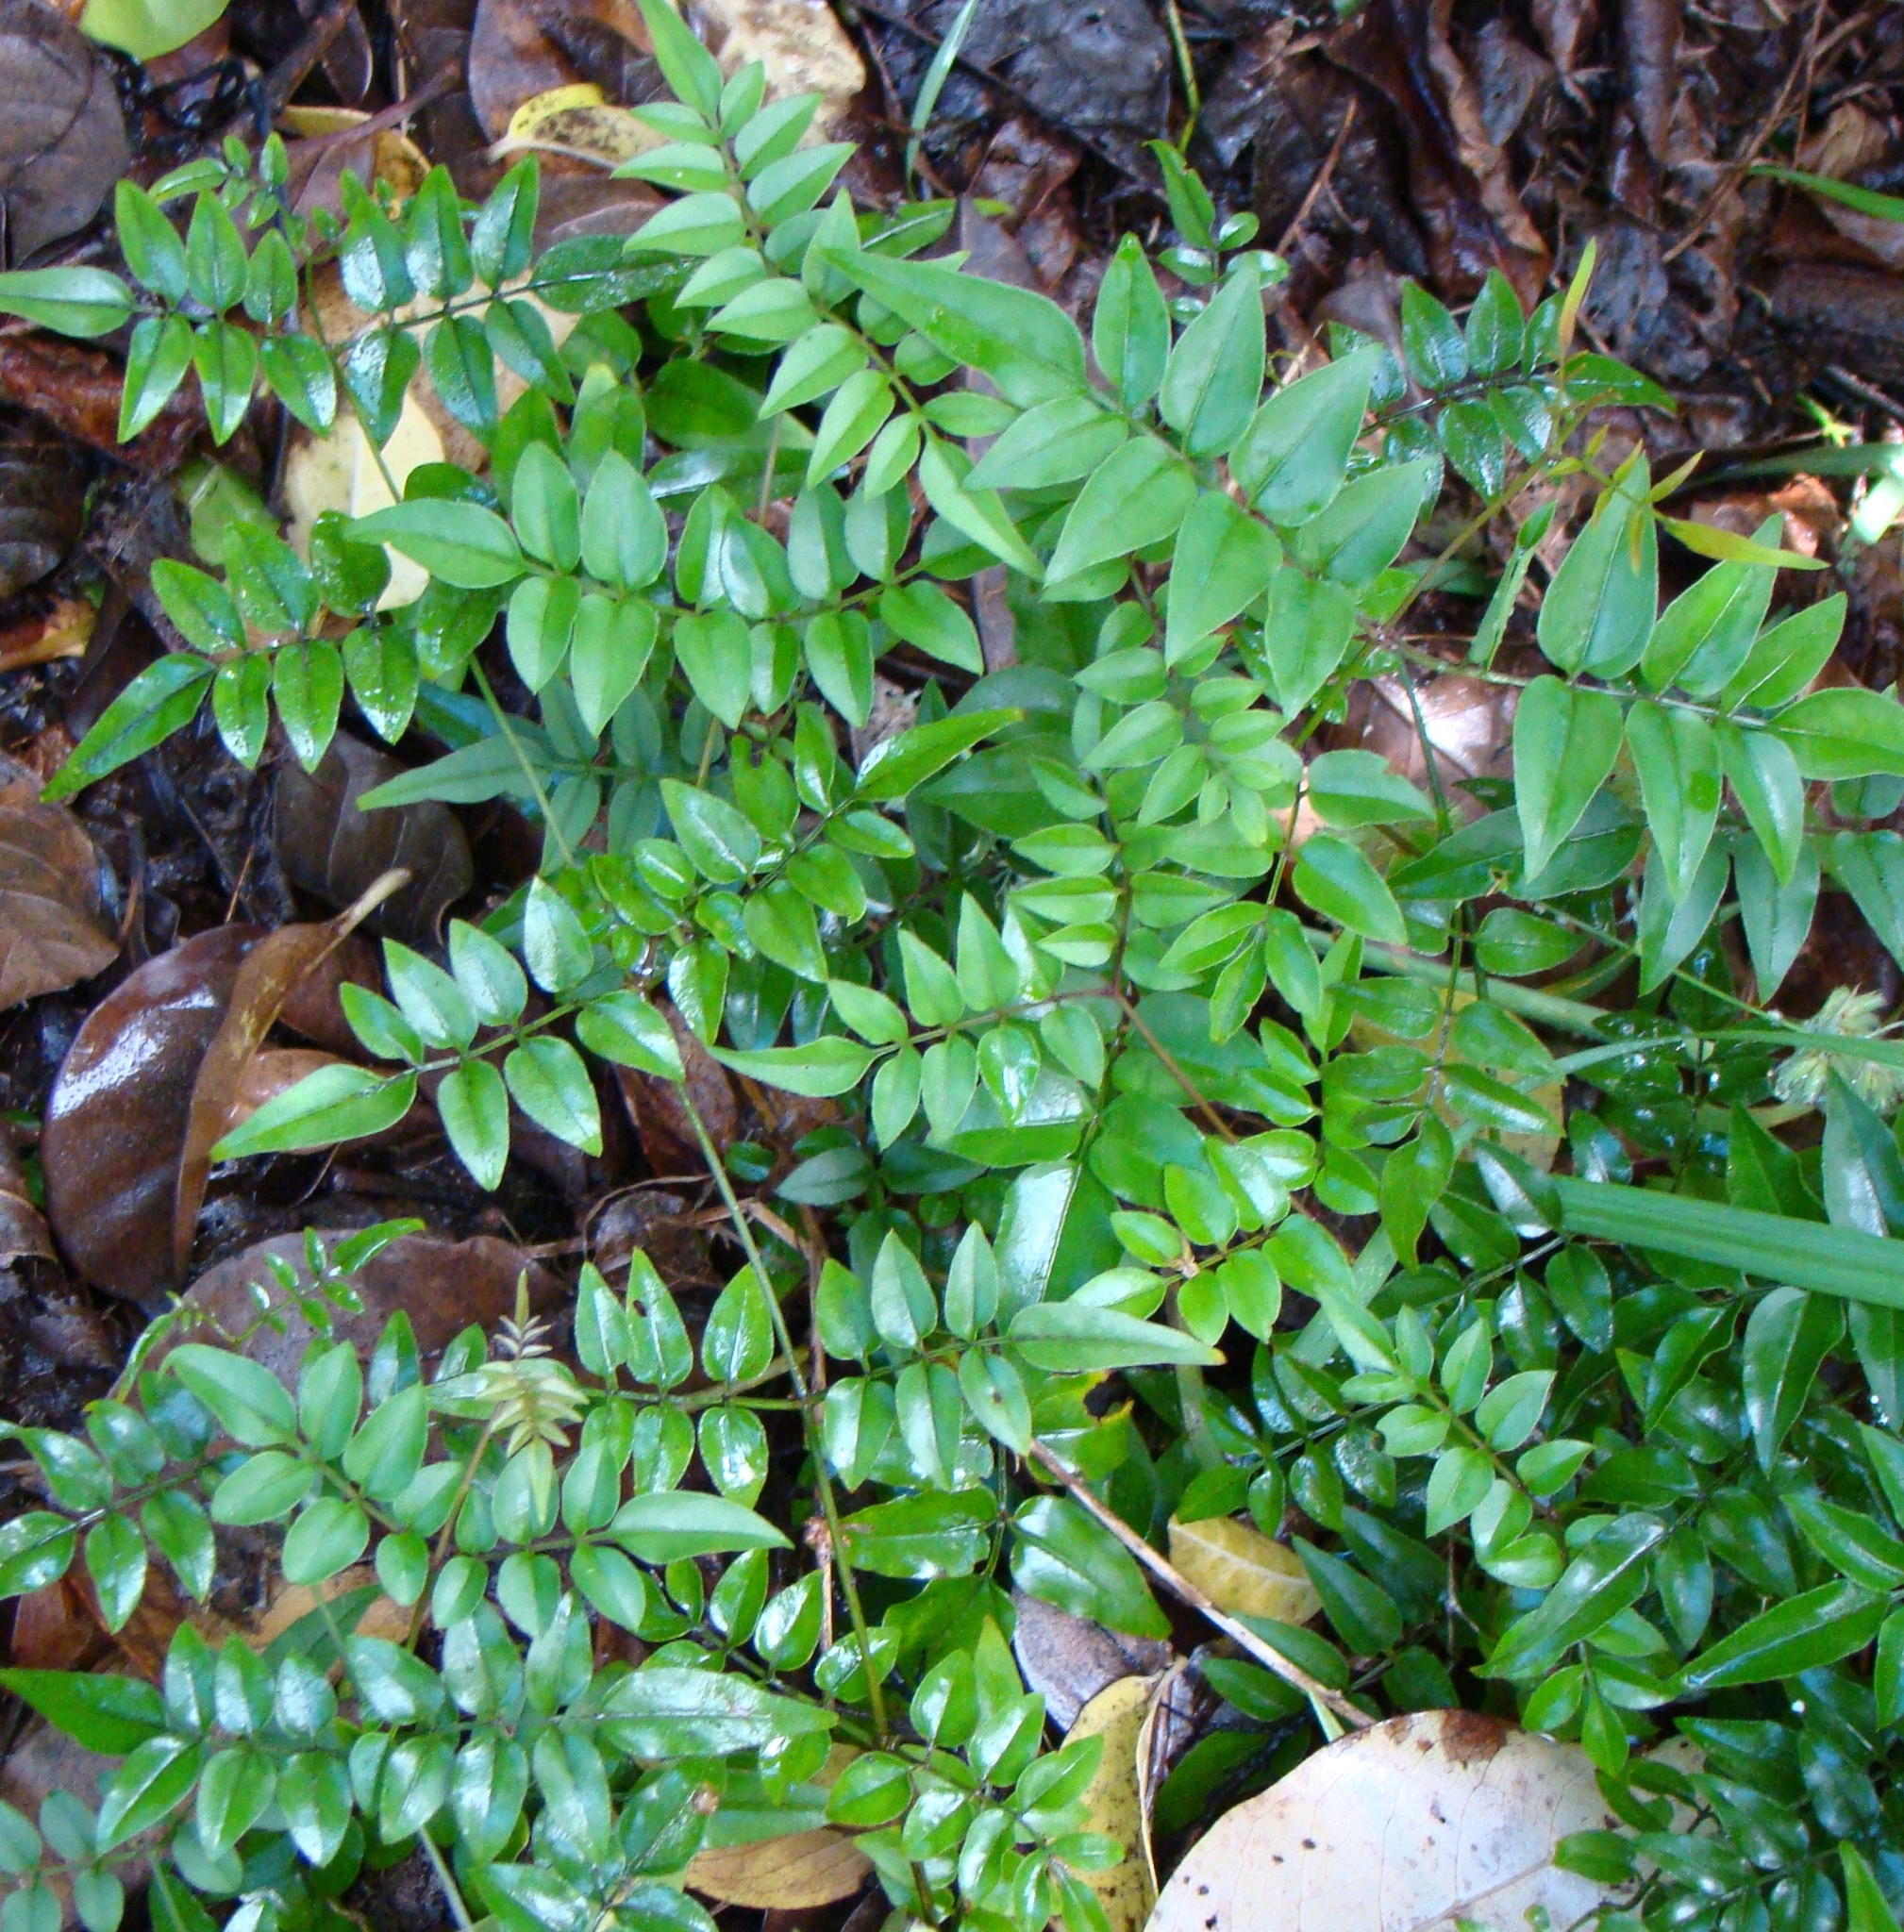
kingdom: Plantae
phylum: Tracheophyta
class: Magnoliopsida
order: Lamiales
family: Oleaceae
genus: Jasminum
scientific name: Jasminum polyanthum
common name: Pink jasmine
